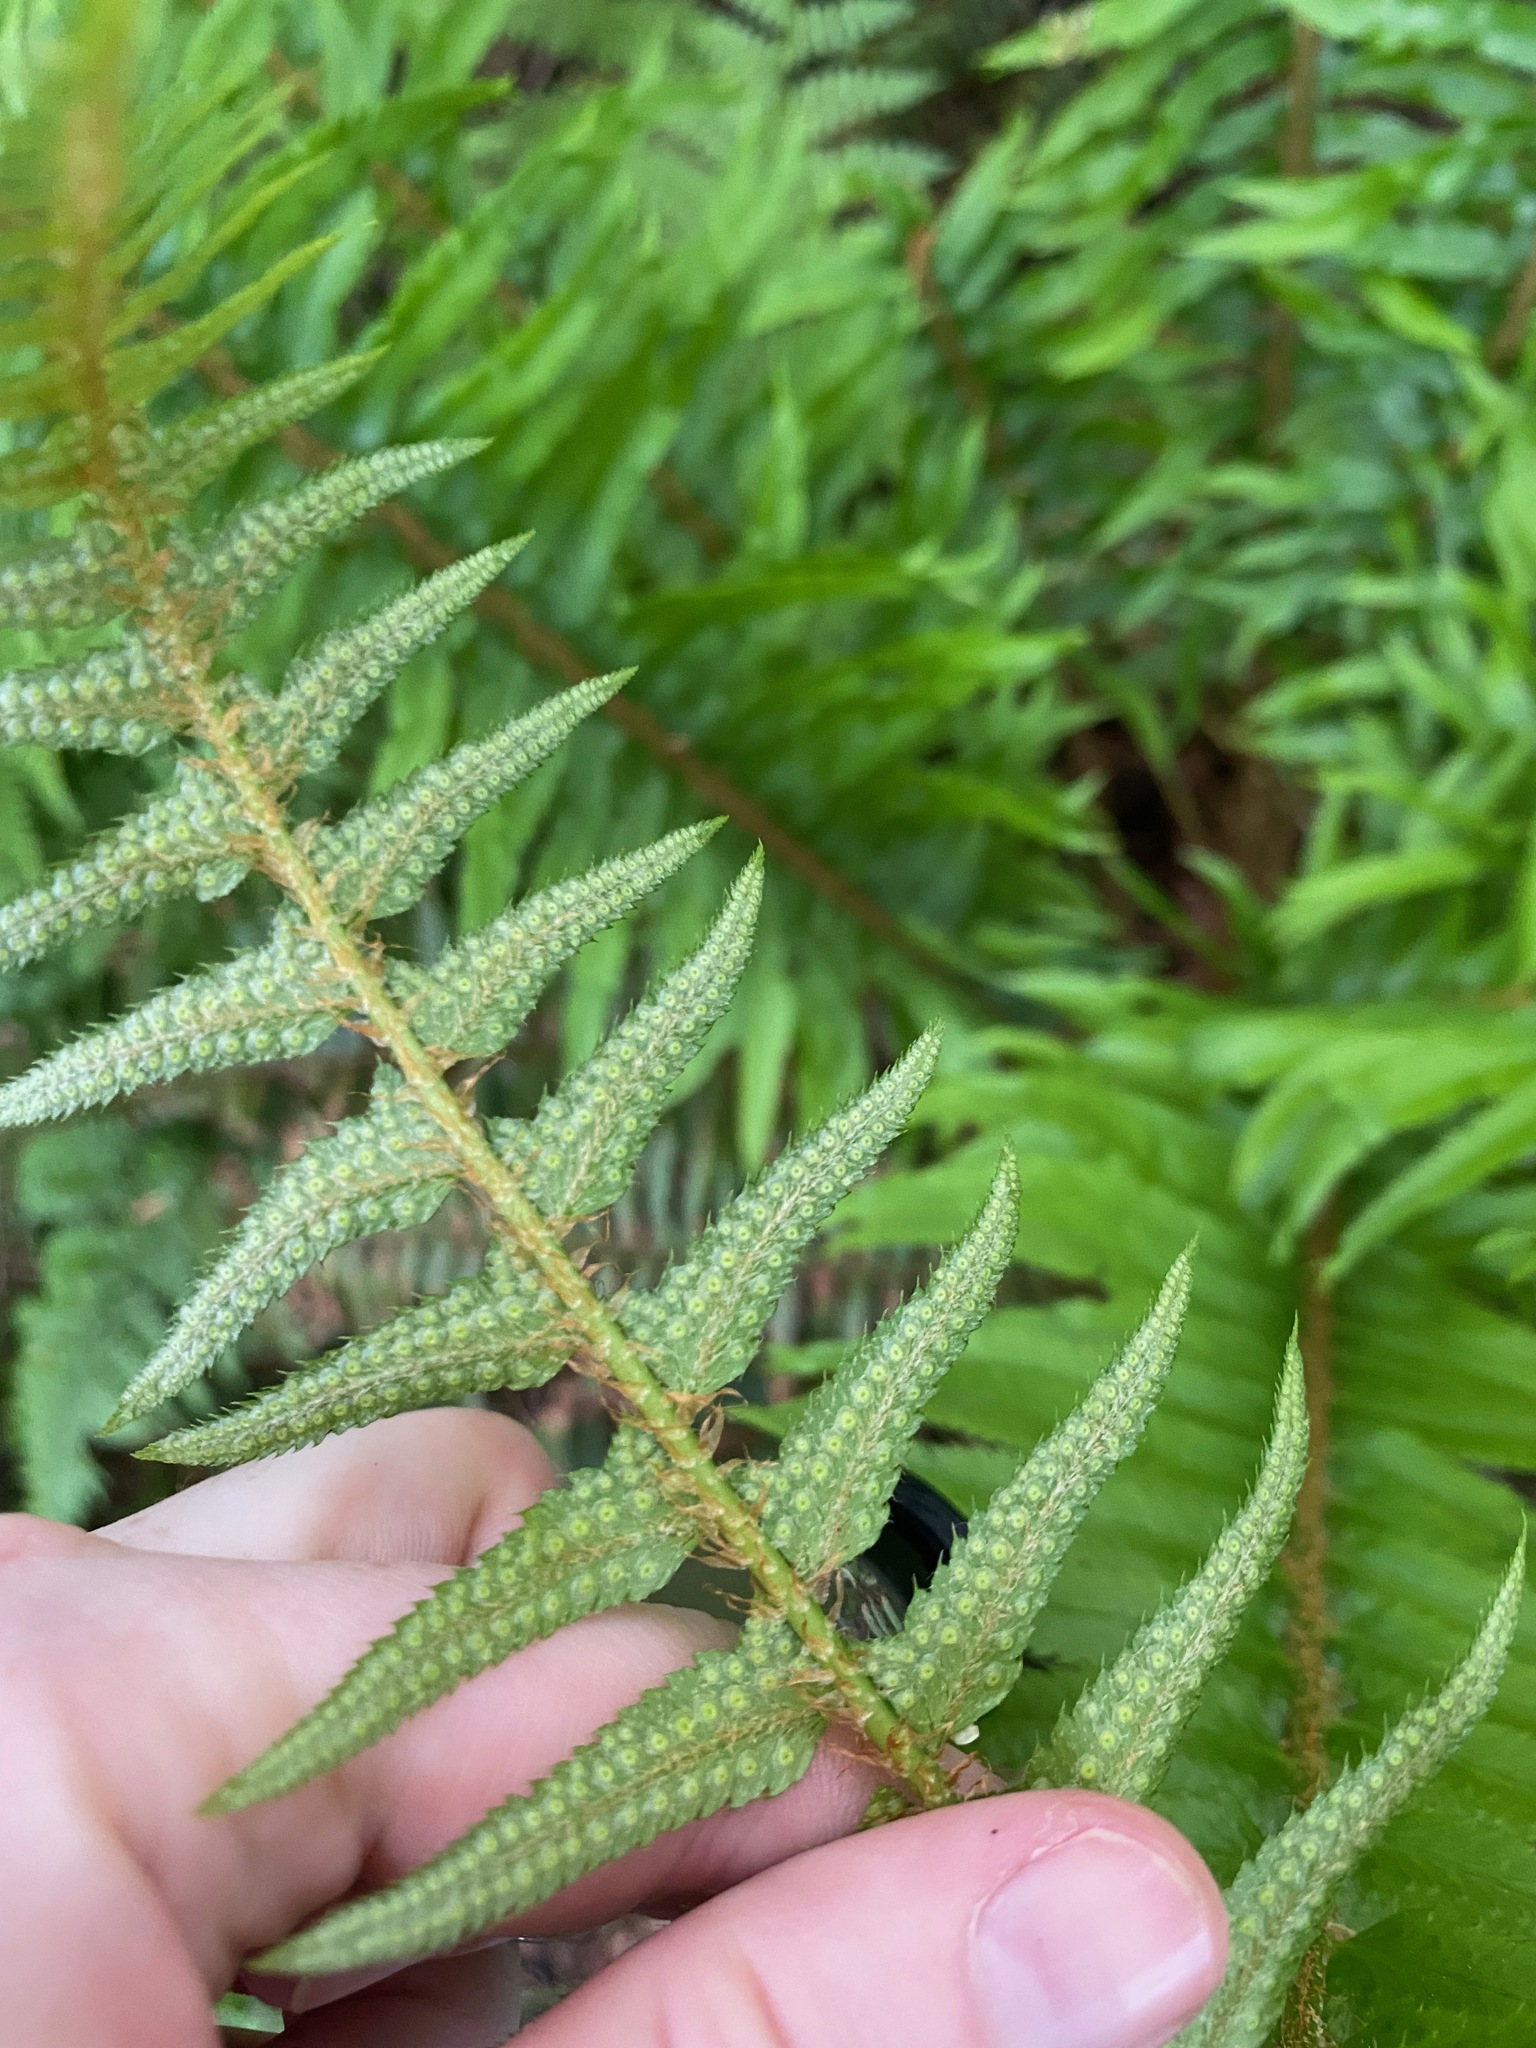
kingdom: Plantae
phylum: Tracheophyta
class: Polypodiopsida
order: Polypodiales
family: Dryopteridaceae
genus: Polystichum
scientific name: Polystichum munitum
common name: Western sword-fern
